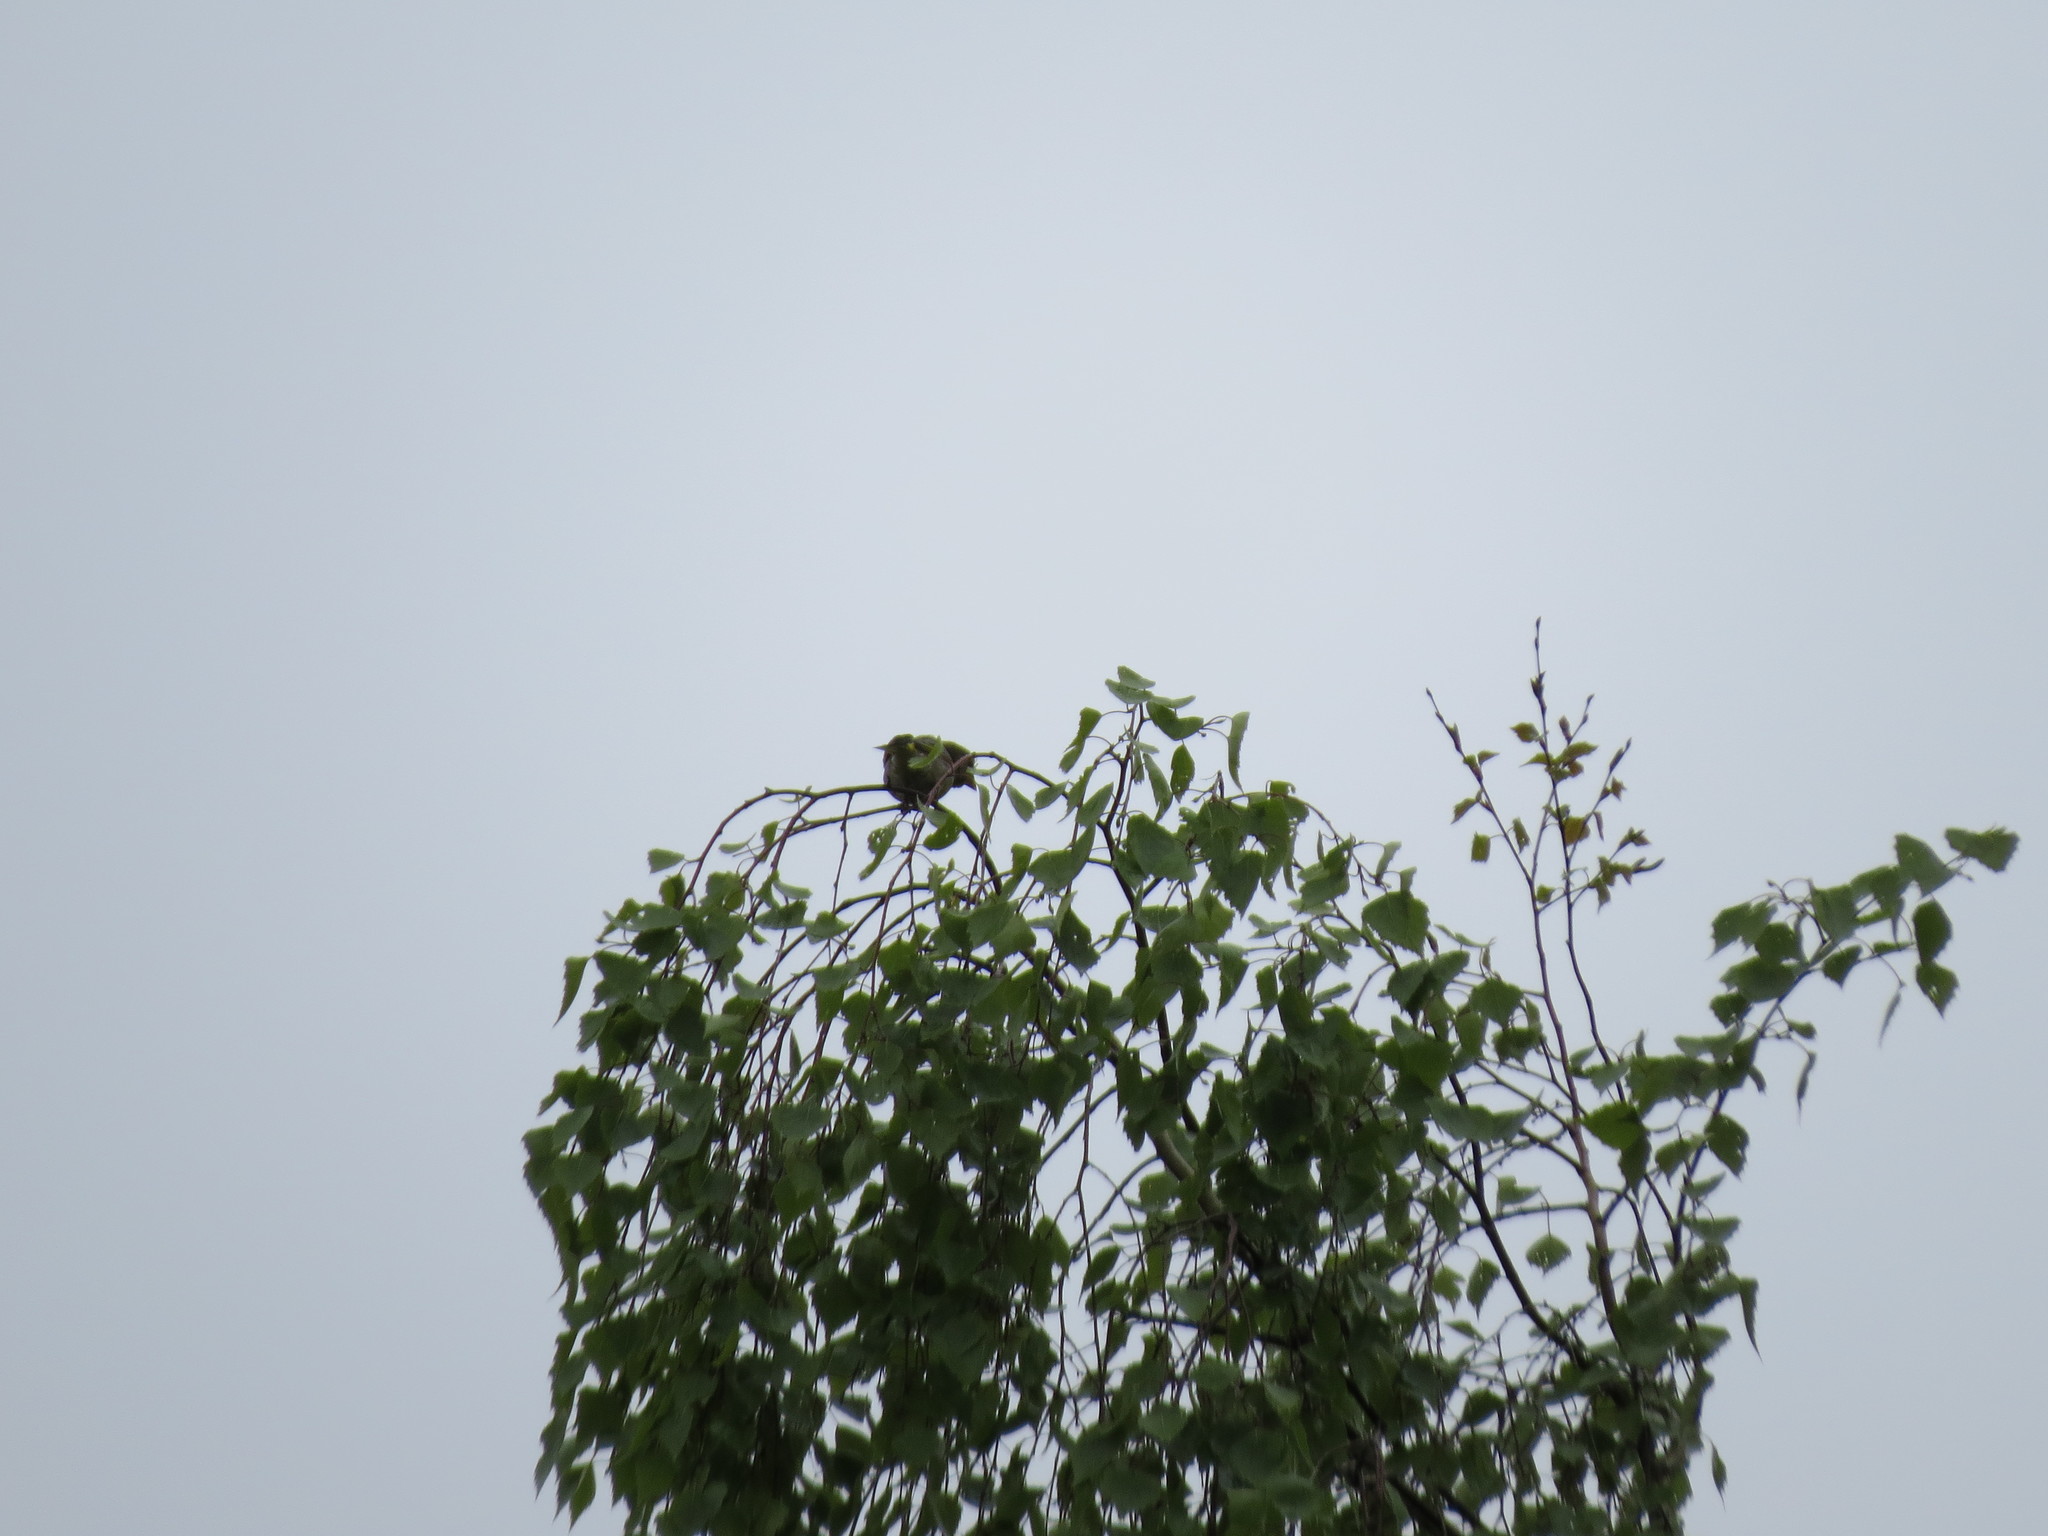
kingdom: Plantae
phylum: Tracheophyta
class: Liliopsida
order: Poales
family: Poaceae
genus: Chloris
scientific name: Chloris chloris
